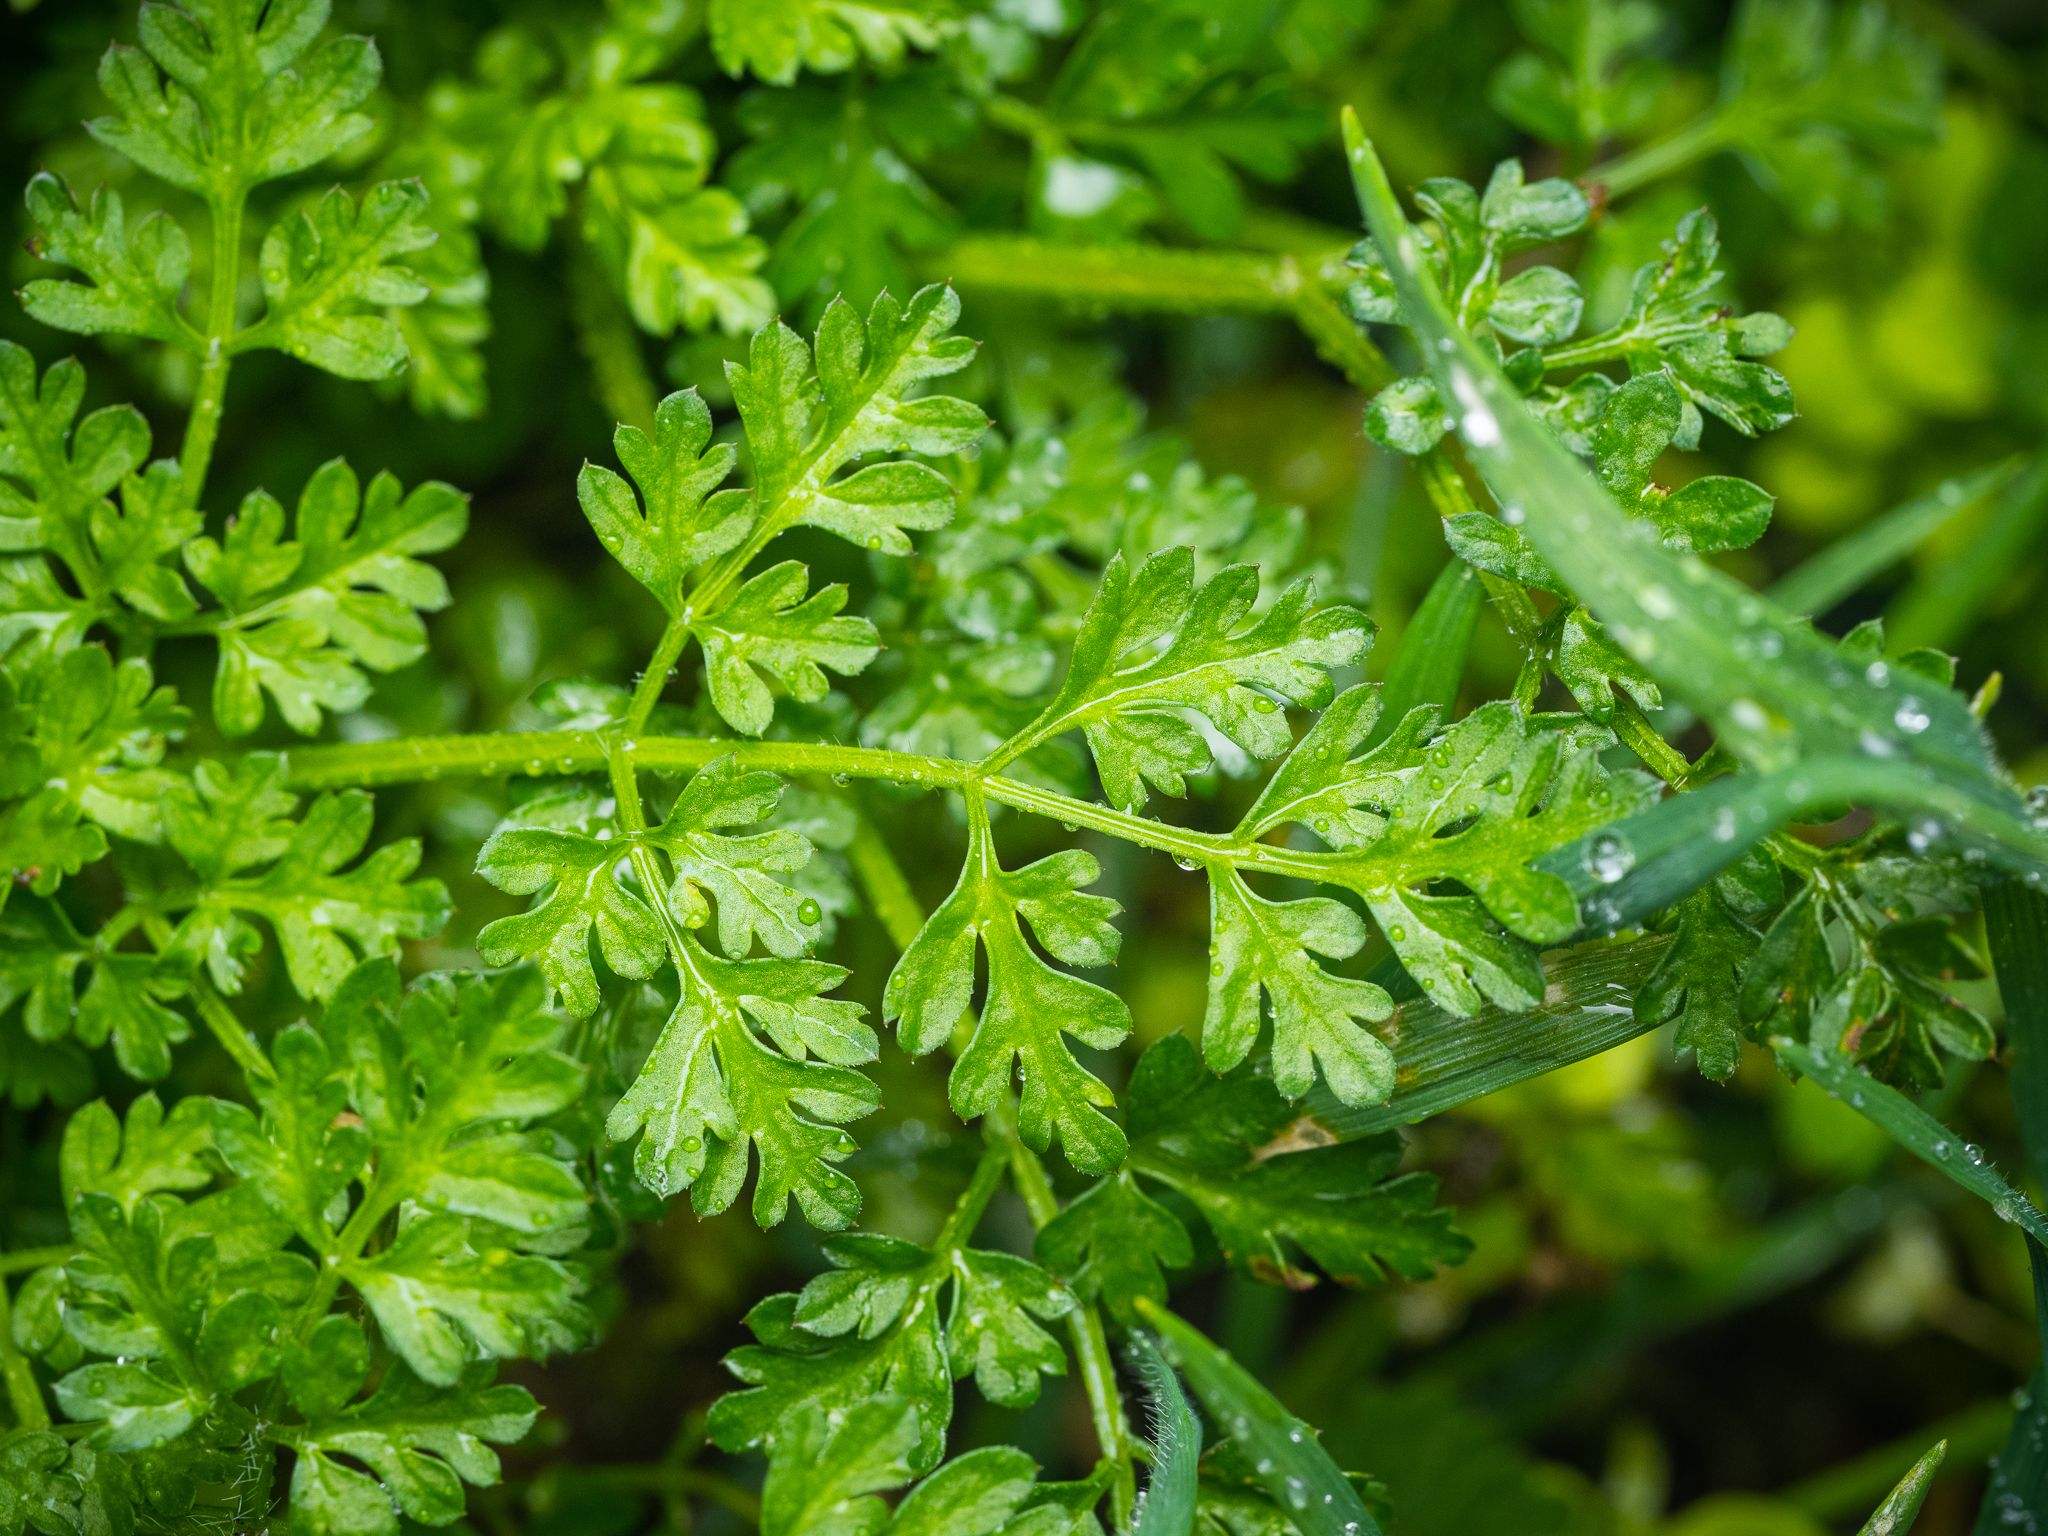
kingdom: Plantae
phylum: Tracheophyta
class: Magnoliopsida
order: Apiales
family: Apiaceae
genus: Anthriscus
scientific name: Anthriscus caucalis
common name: Bur chervil
